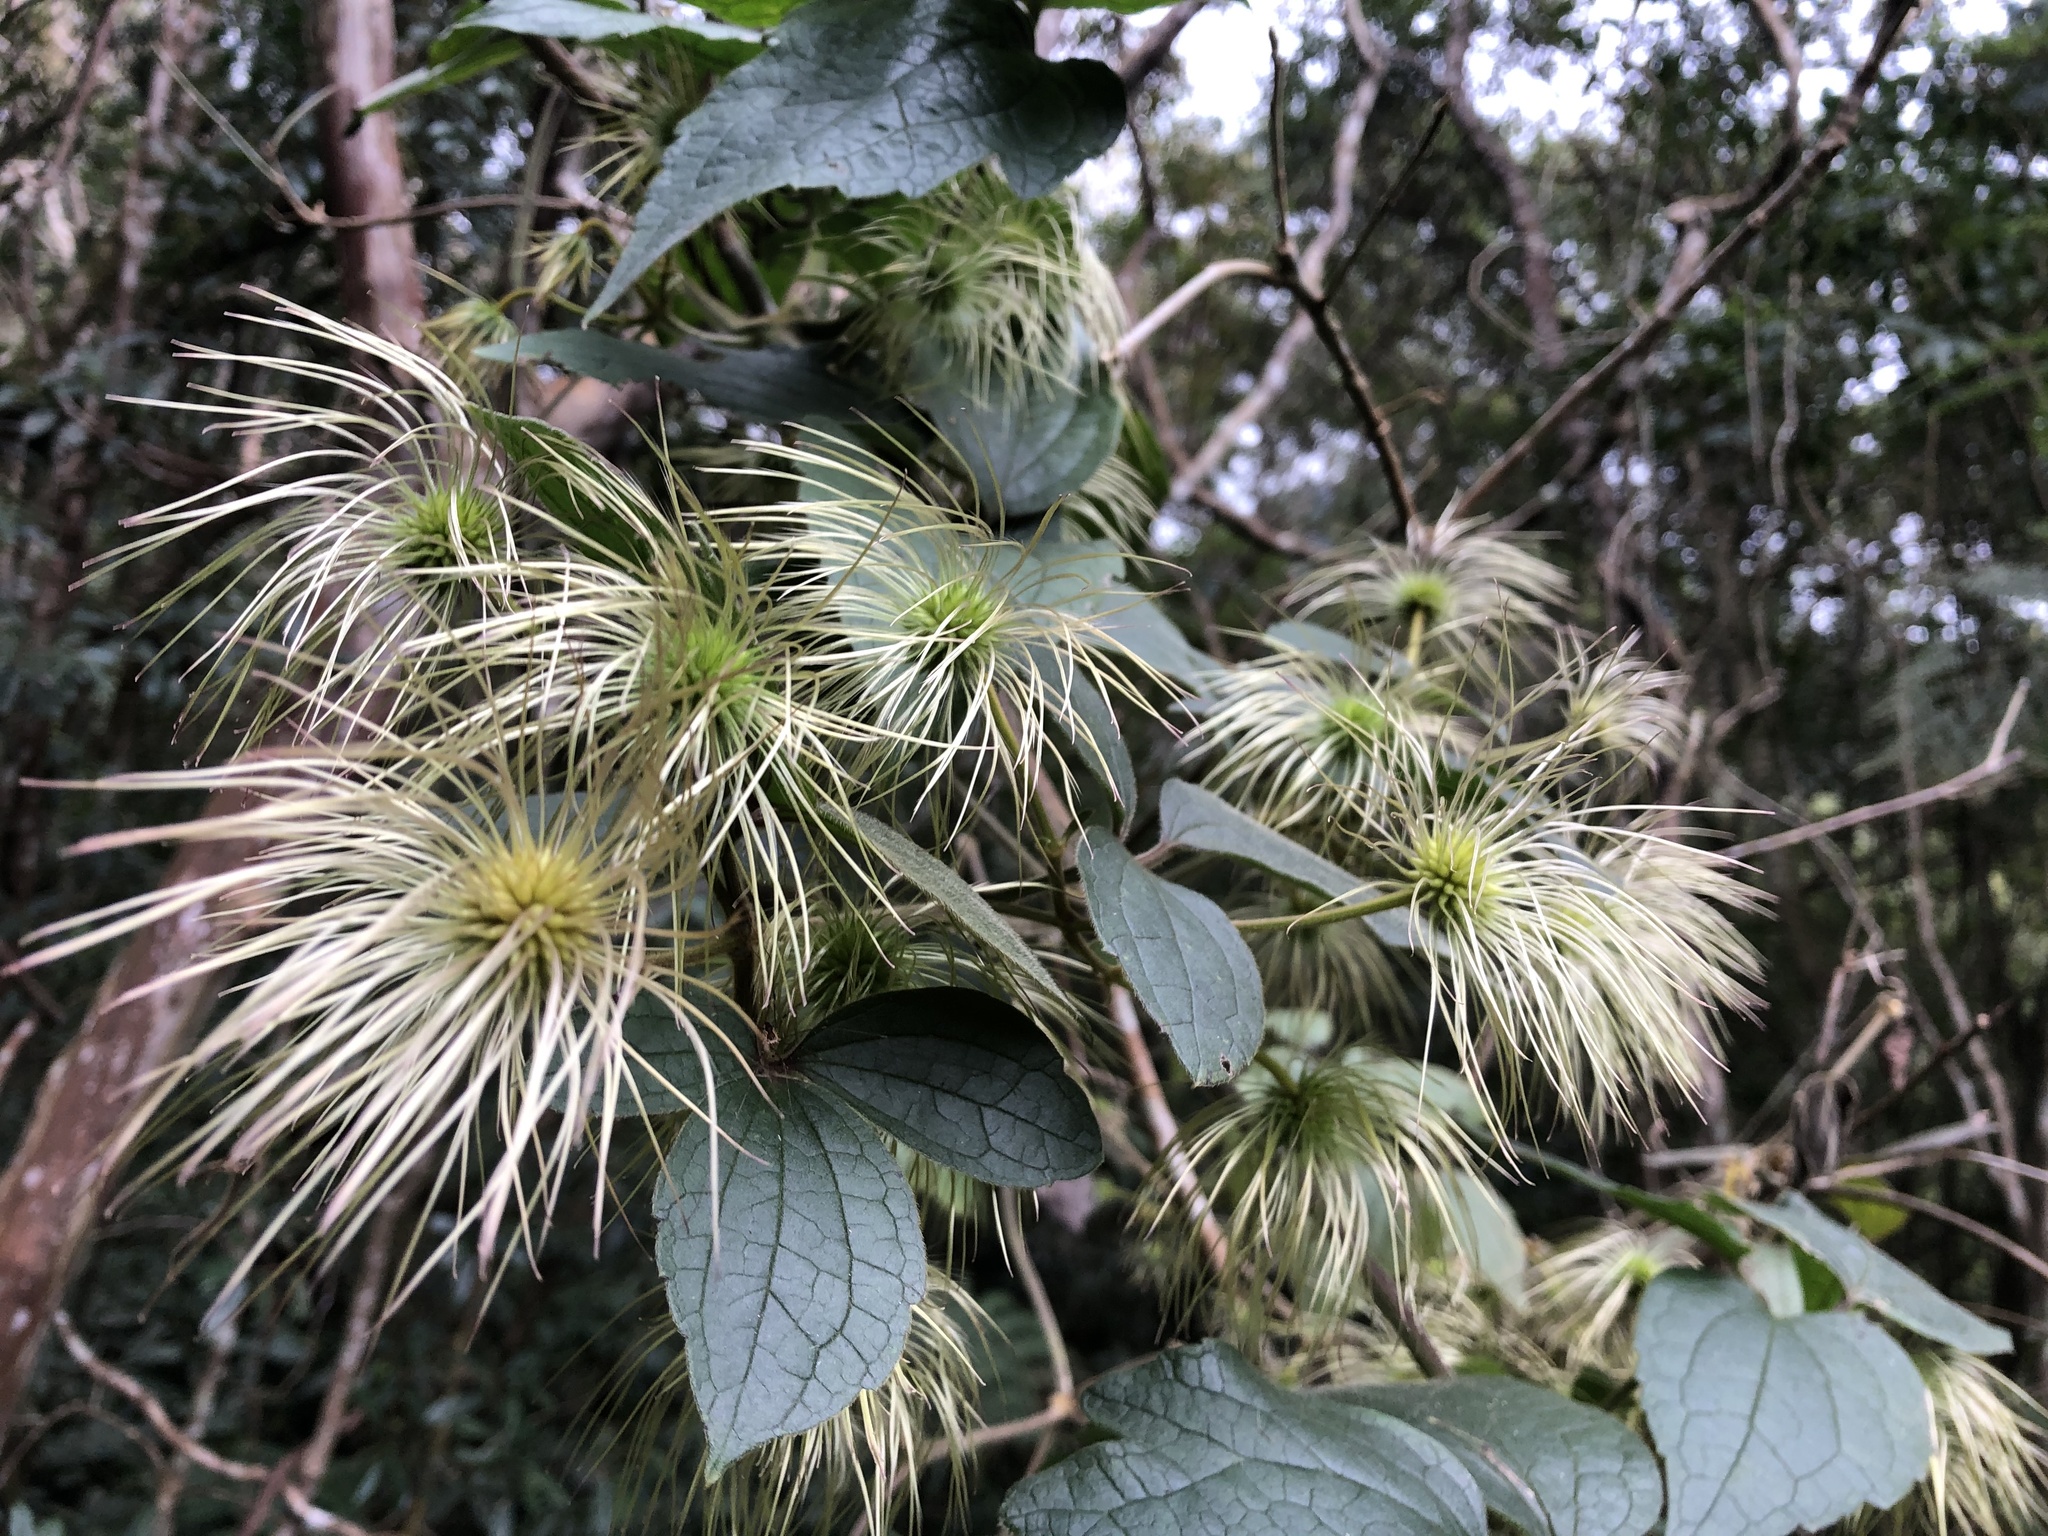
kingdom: Plantae
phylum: Tracheophyta
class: Magnoliopsida
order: Ranunculales
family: Ranunculaceae
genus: Clematis
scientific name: Clematis leschenaultiana
